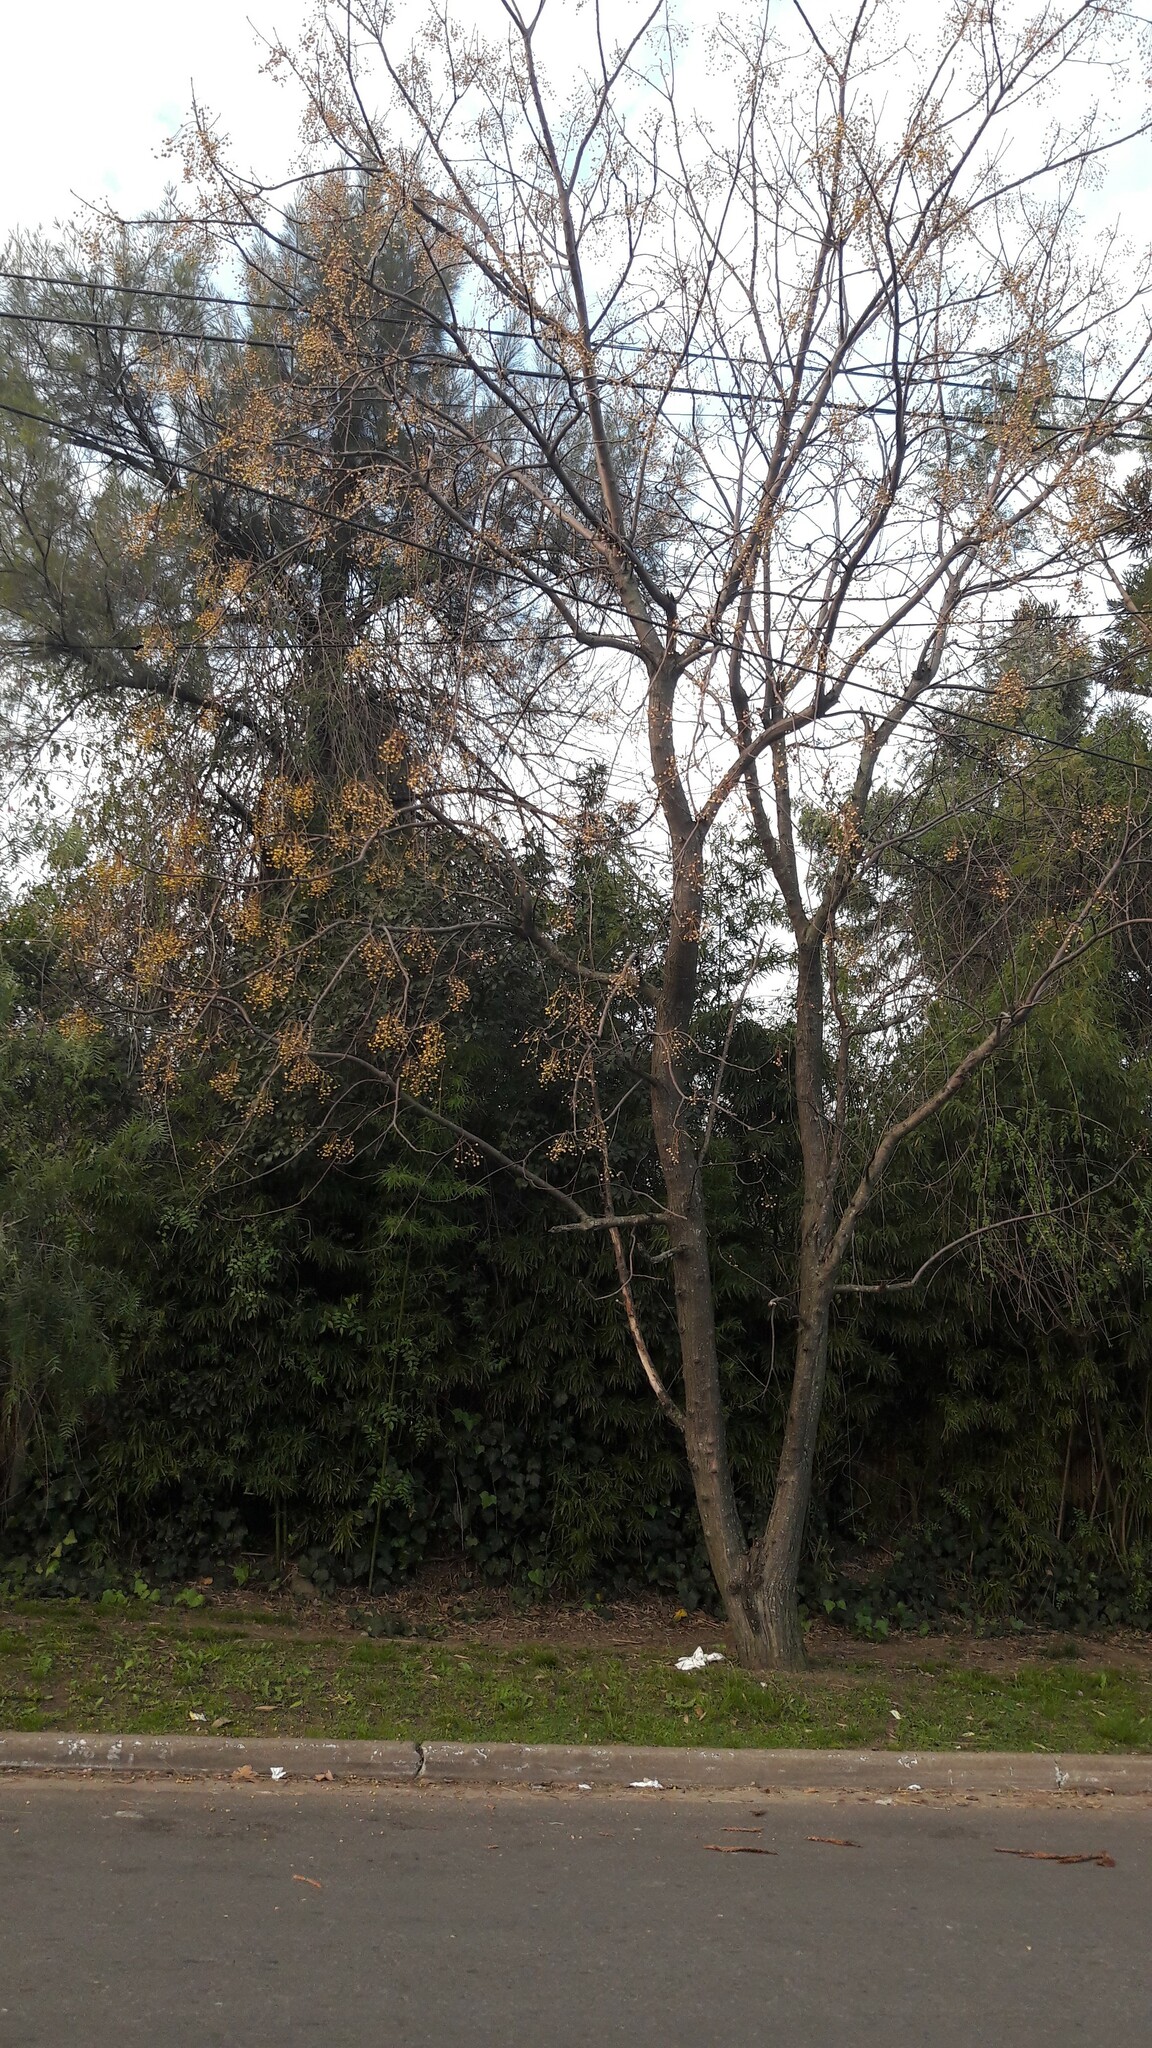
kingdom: Plantae
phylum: Tracheophyta
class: Magnoliopsida
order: Sapindales
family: Meliaceae
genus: Melia
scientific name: Melia azedarach
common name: Chinaberrytree
